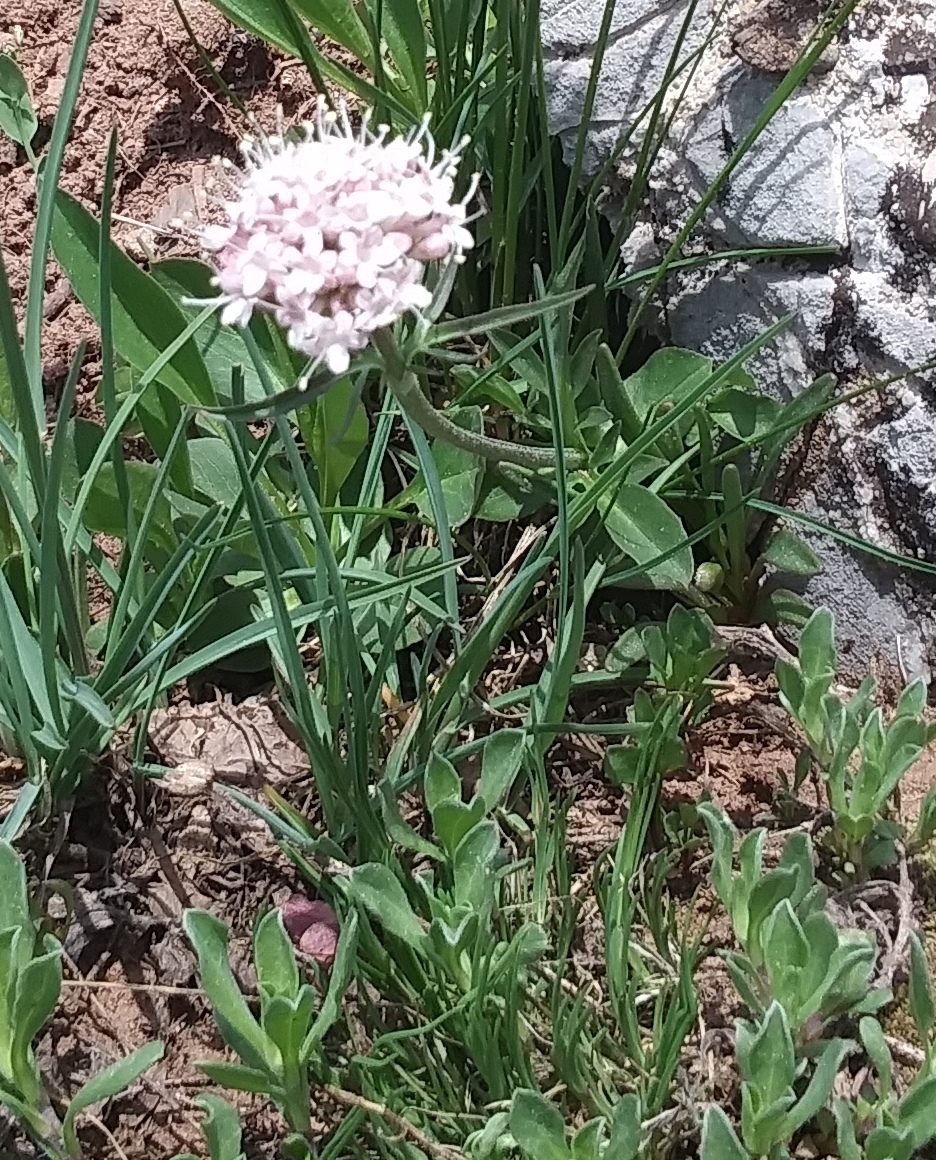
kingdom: Plantae
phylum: Tracheophyta
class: Magnoliopsida
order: Dipsacales
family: Caprifoliaceae
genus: Valeriana
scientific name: Valeriana acutiloba
